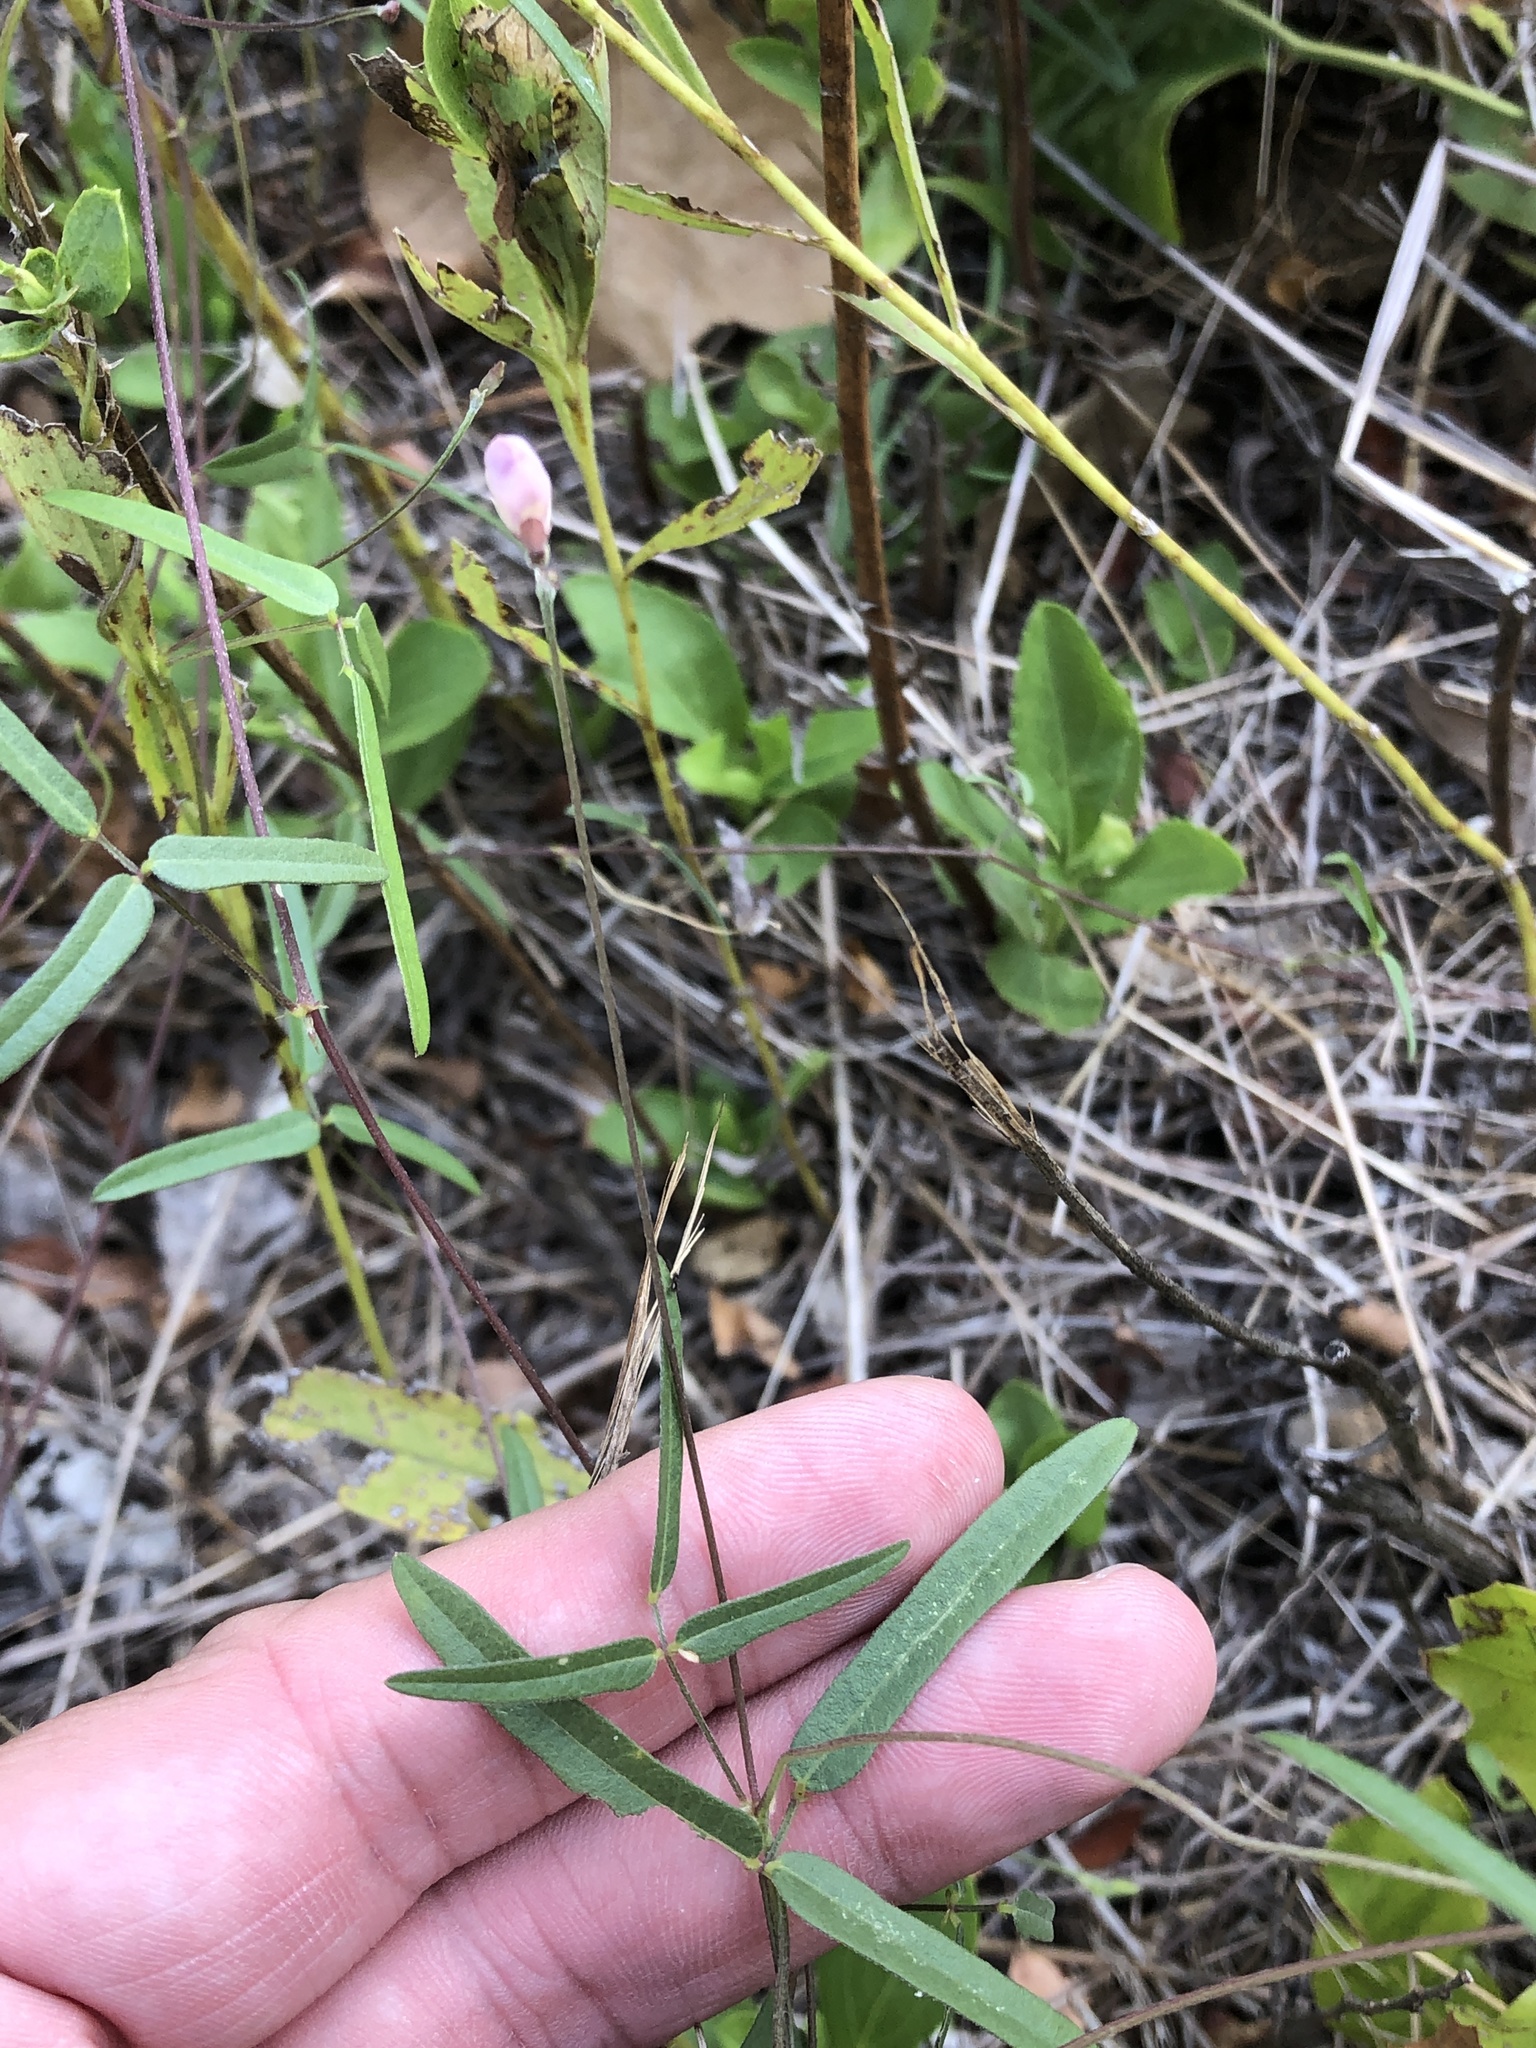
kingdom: Plantae
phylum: Tracheophyta
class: Magnoliopsida
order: Fabales
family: Fabaceae
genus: Strophostyles
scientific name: Strophostyles leiosperma
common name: Smooth-seed wild bean
